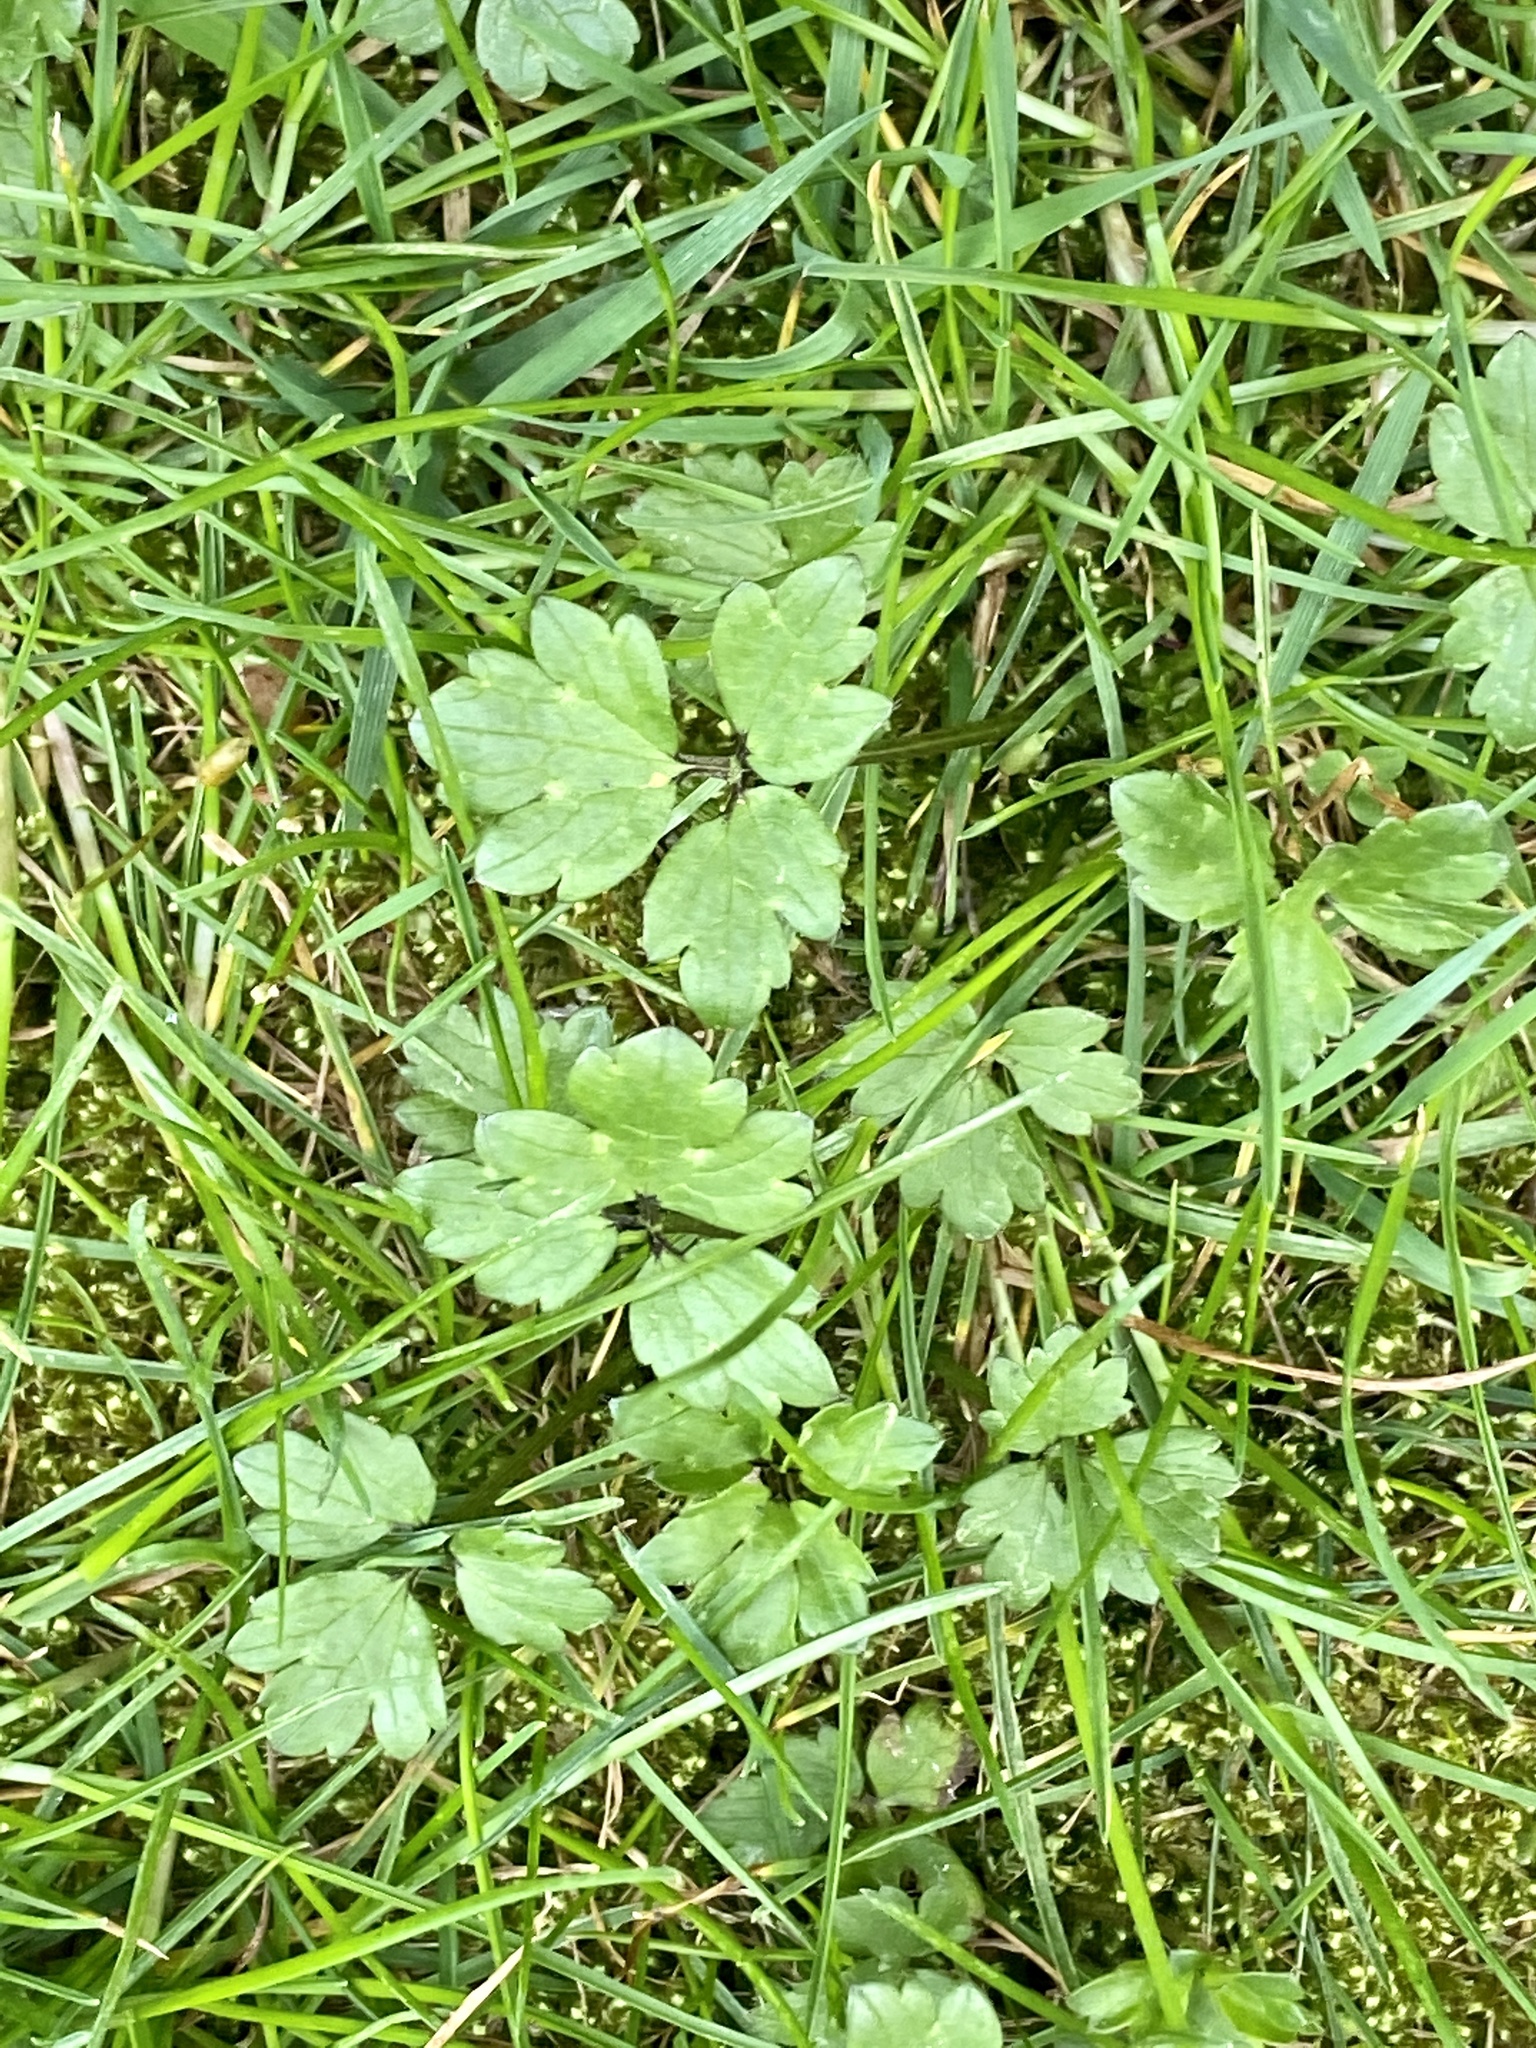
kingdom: Plantae
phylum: Tracheophyta
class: Magnoliopsida
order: Ranunculales
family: Ranunculaceae
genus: Ranunculus
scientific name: Ranunculus repens
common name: Creeping buttercup
